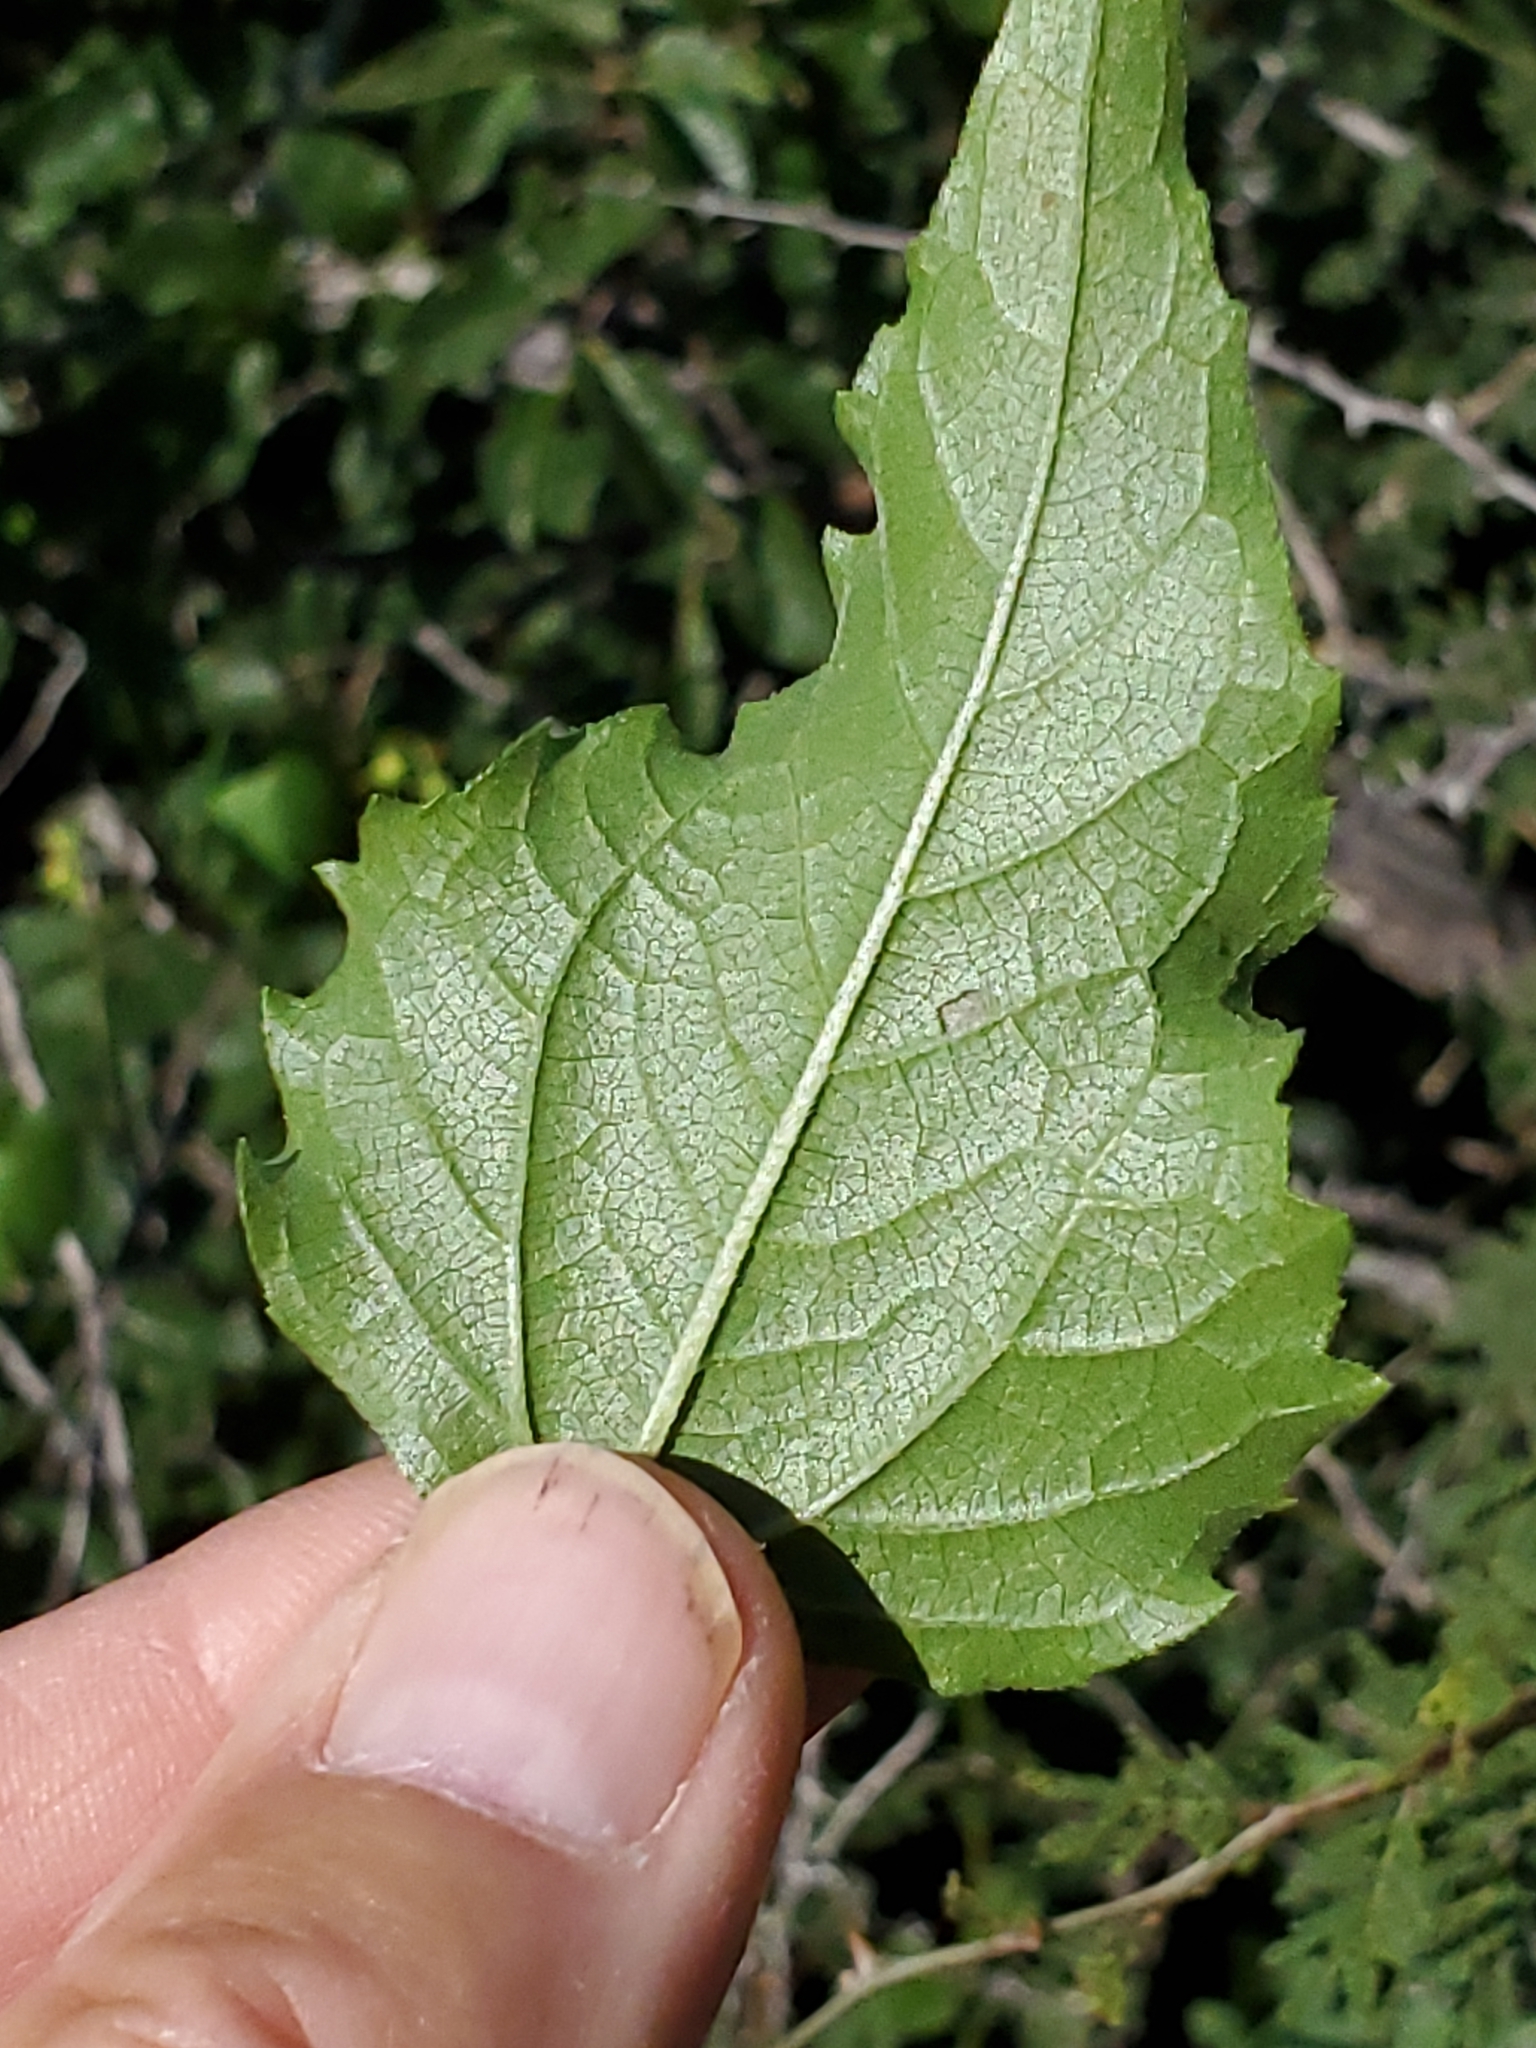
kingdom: Plantae
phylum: Tracheophyta
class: Magnoliopsida
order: Asterales
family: Asteraceae
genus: Viguiera
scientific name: Viguiera dentata
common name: Toothleaf
